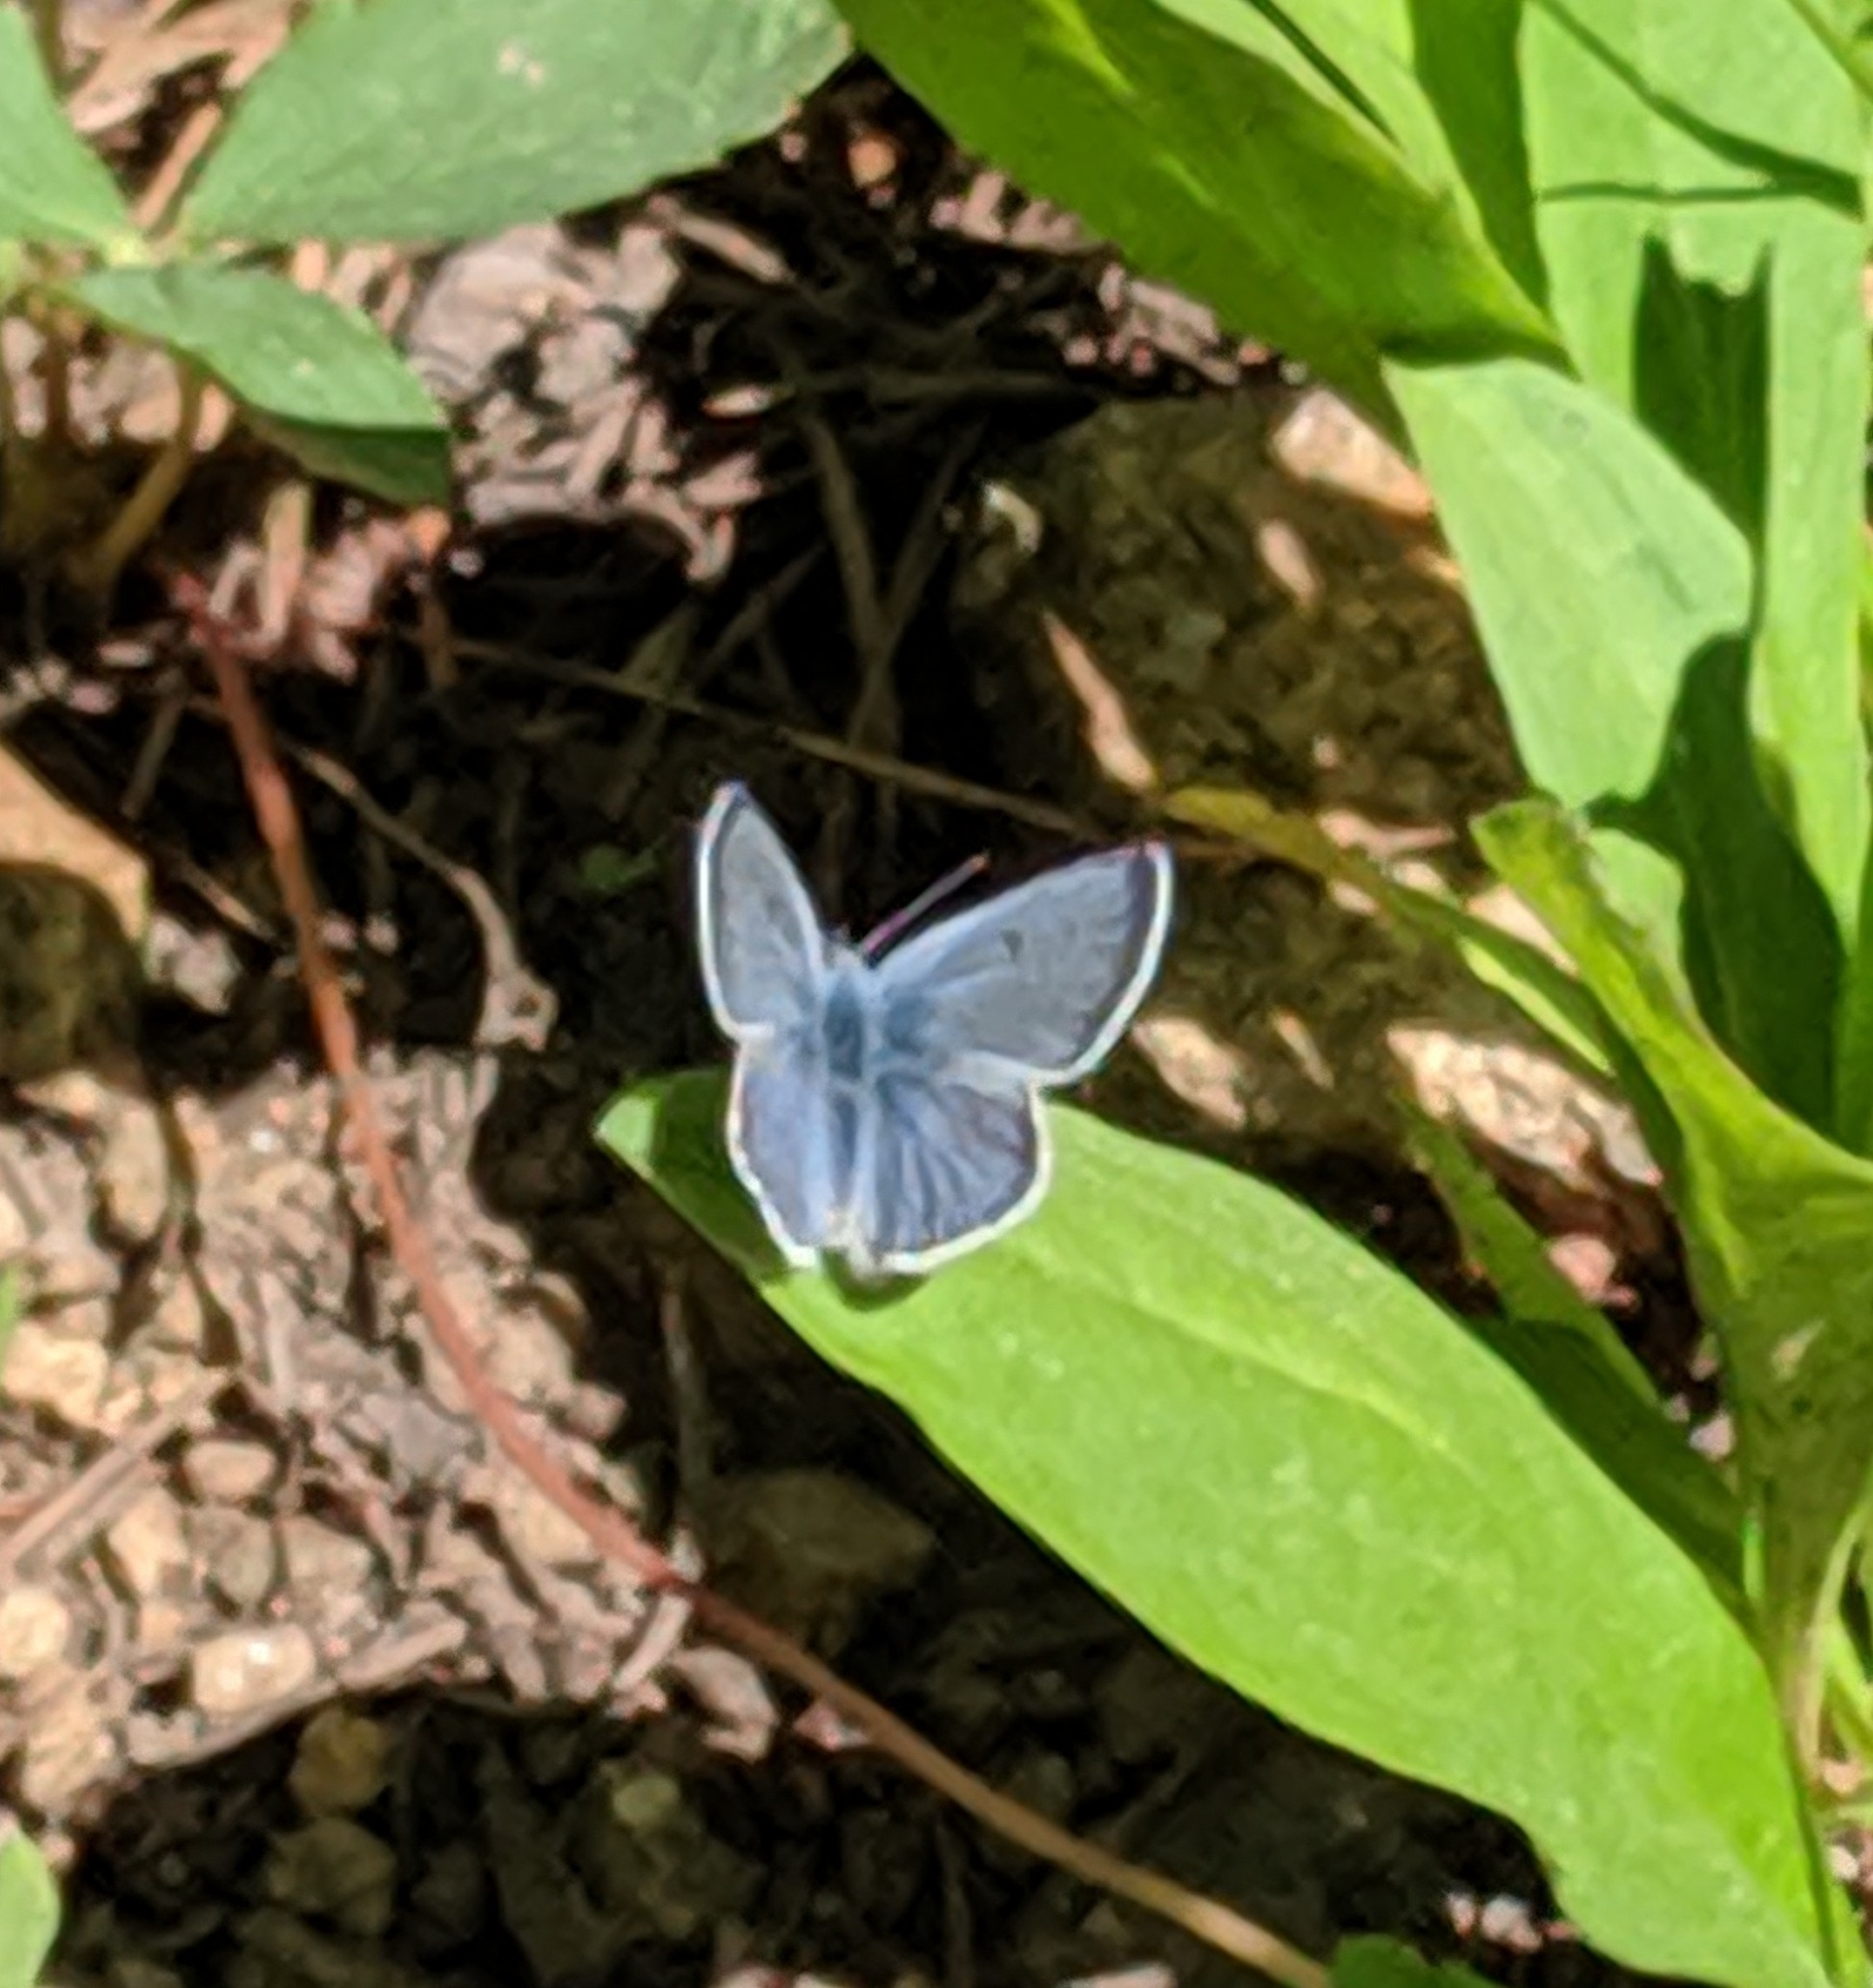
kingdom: Animalia
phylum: Arthropoda
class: Insecta
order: Lepidoptera
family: Lycaenidae
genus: Icaricia
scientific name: Icaricia saepiolus
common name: Greenish blue
